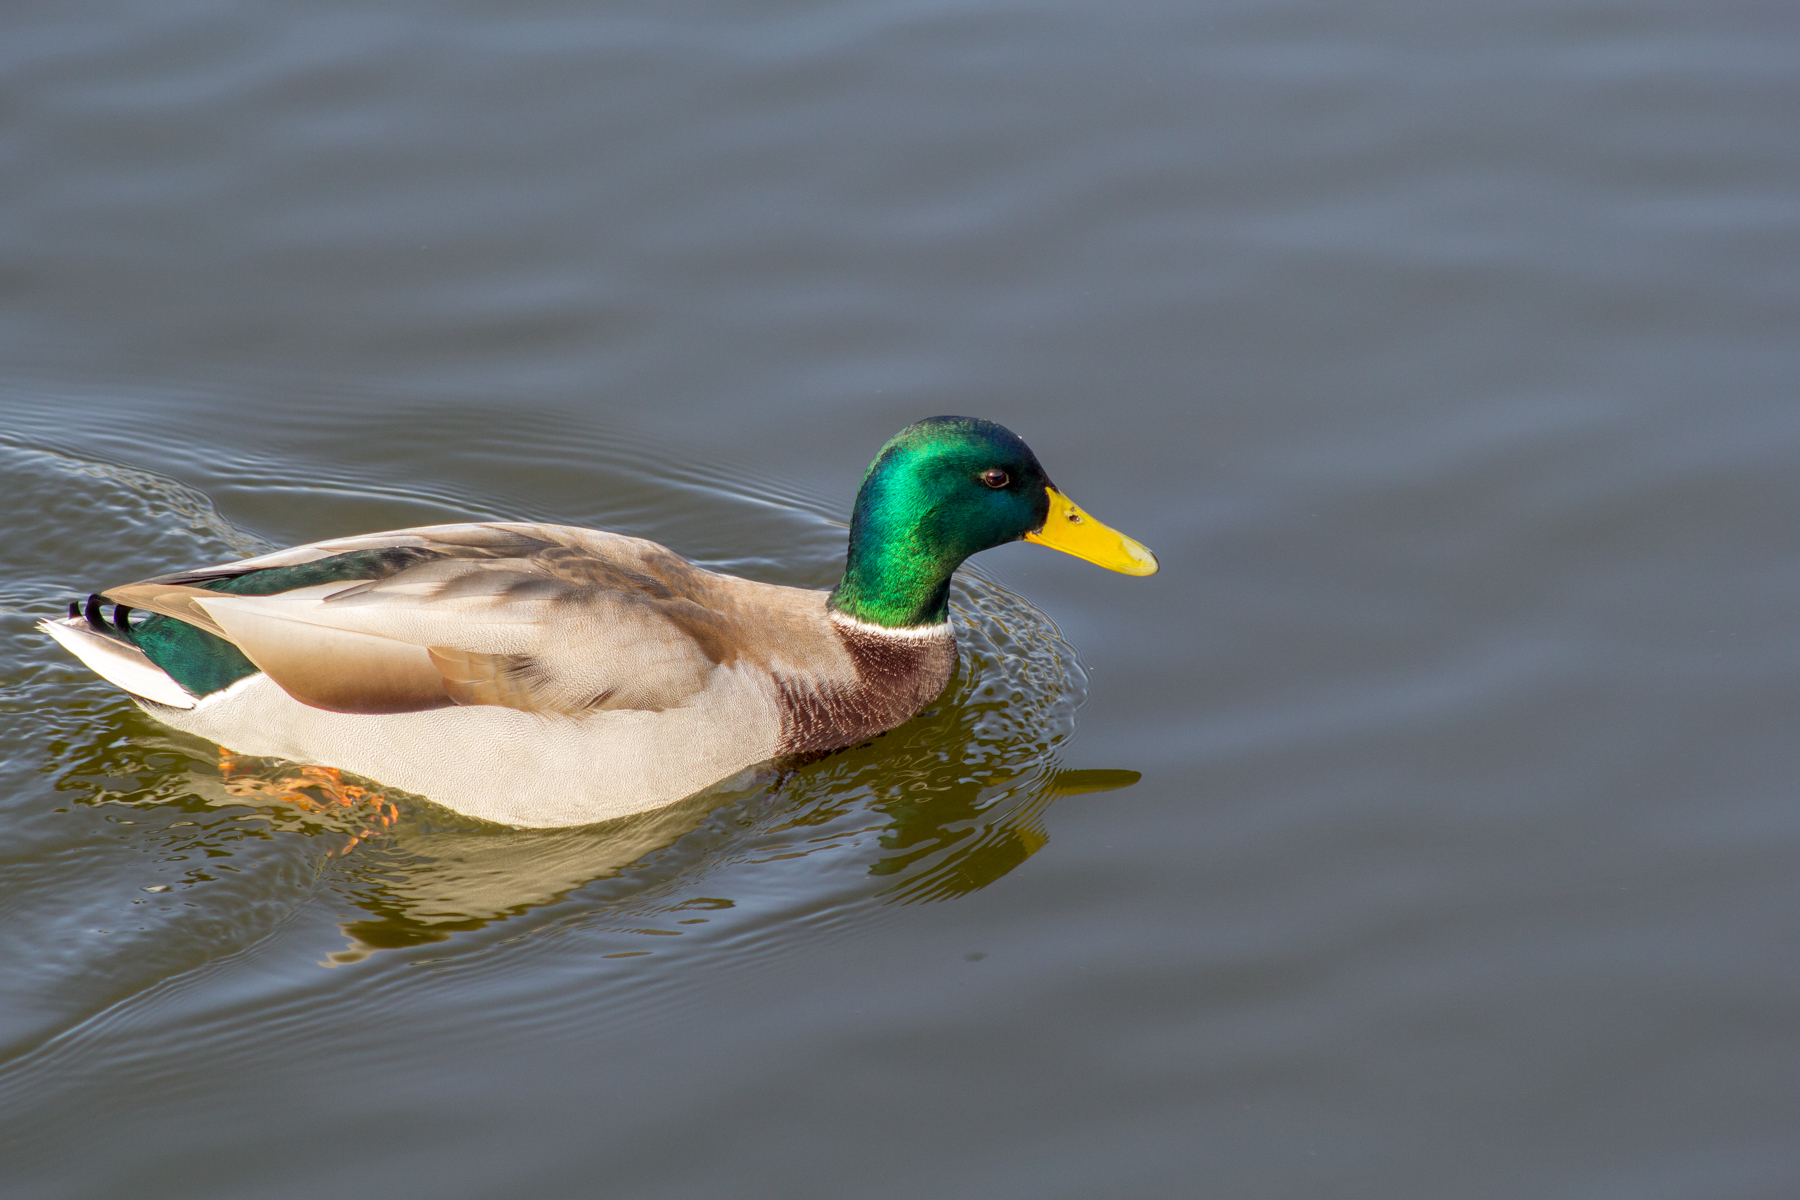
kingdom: Animalia
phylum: Chordata
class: Aves
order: Anseriformes
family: Anatidae
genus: Anas
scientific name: Anas platyrhynchos
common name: Mallard
